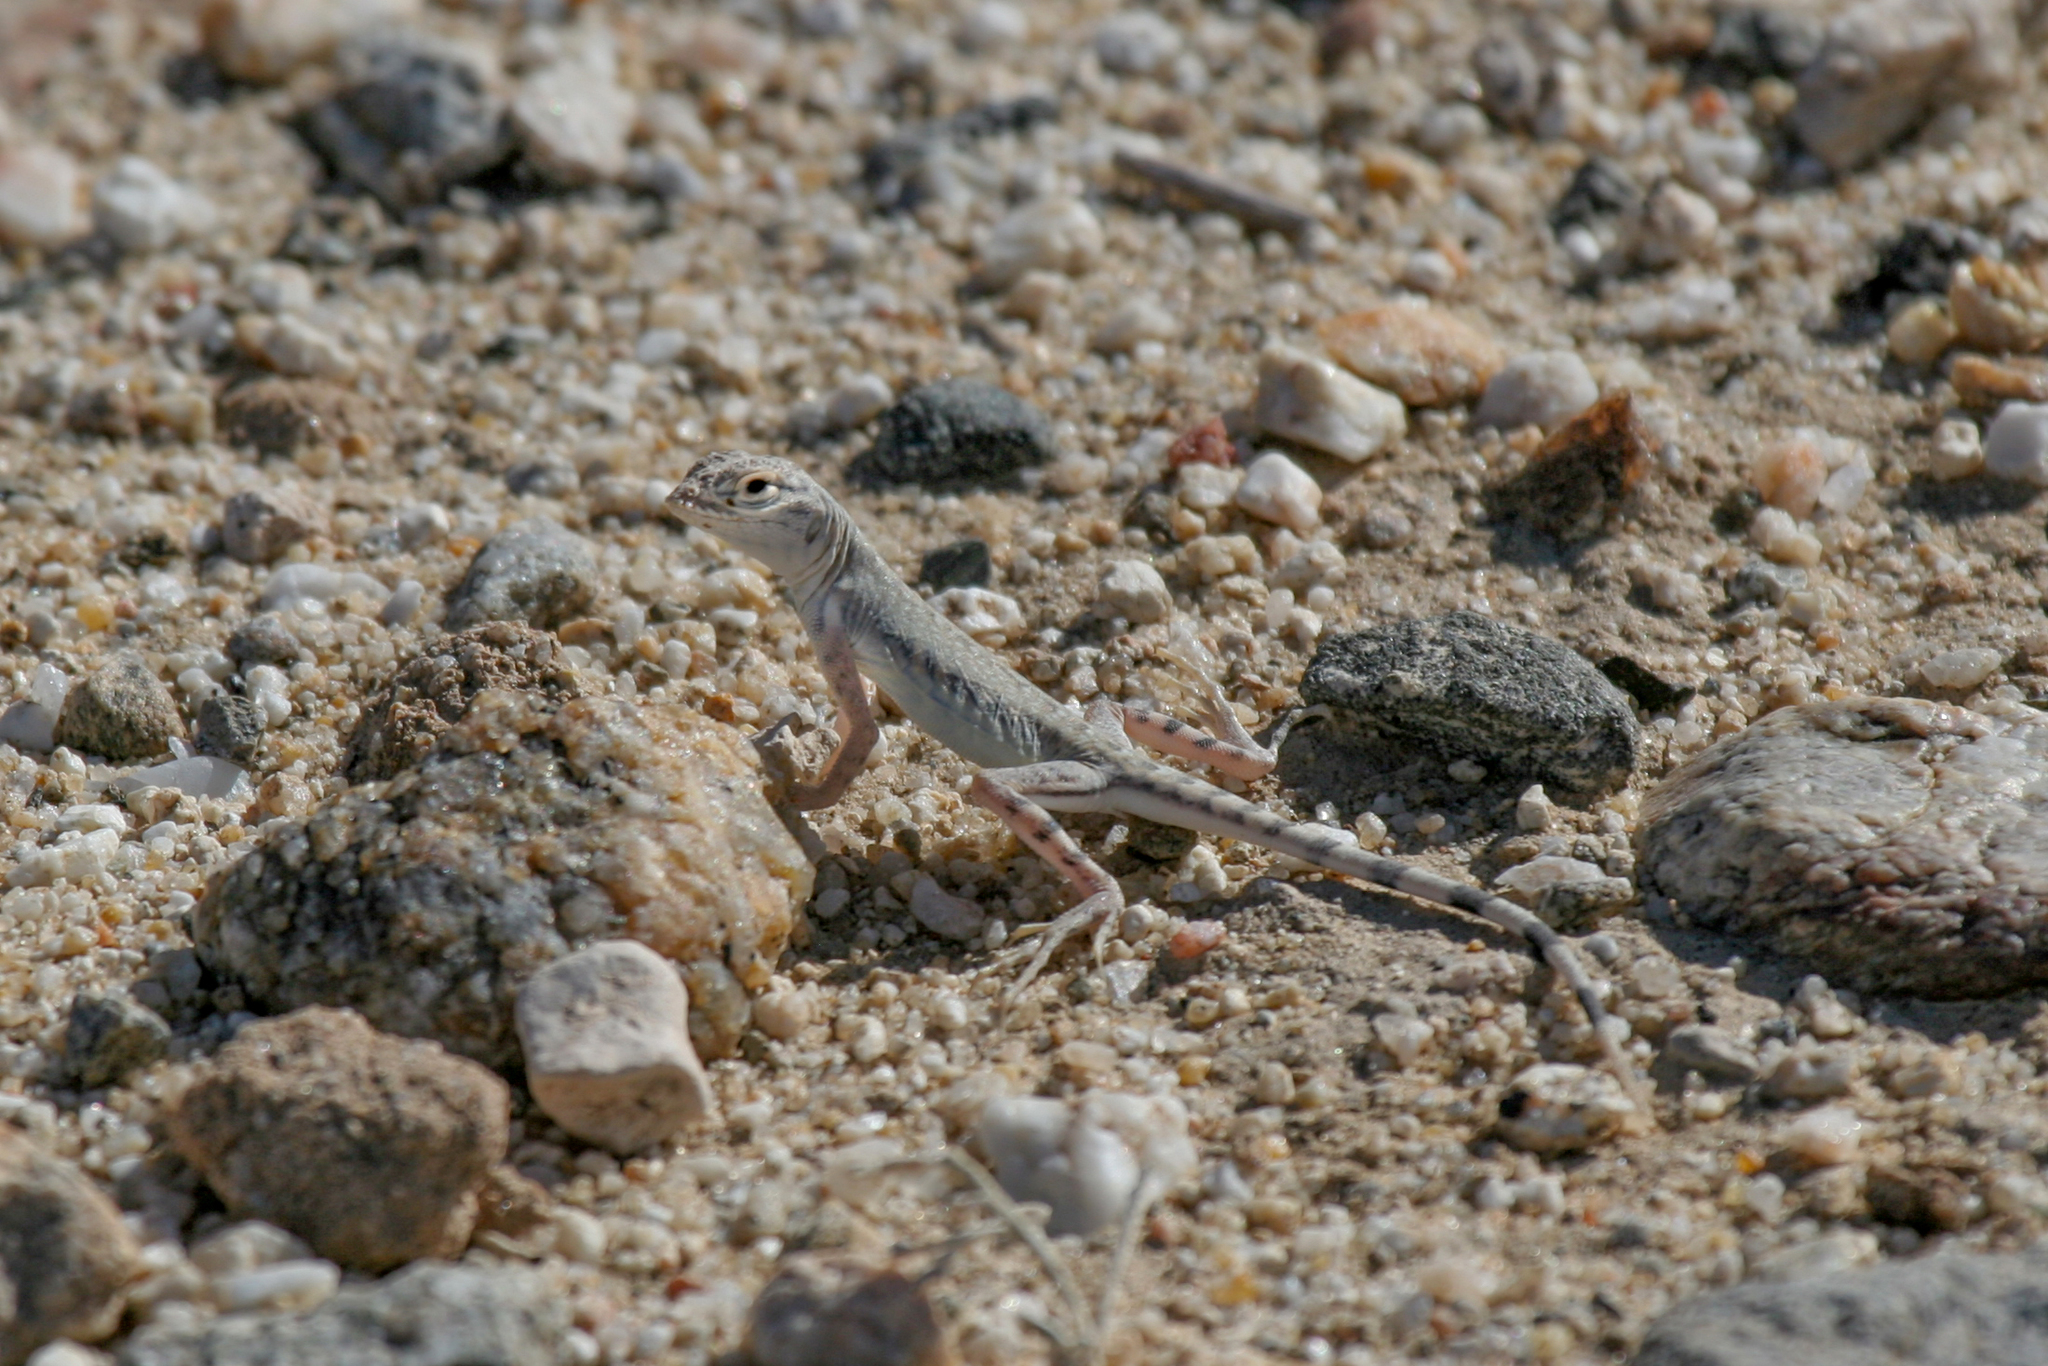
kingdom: Animalia
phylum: Chordata
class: Squamata
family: Phrynosomatidae
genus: Callisaurus
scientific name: Callisaurus draconoides
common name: Zebra-tailed lizard
